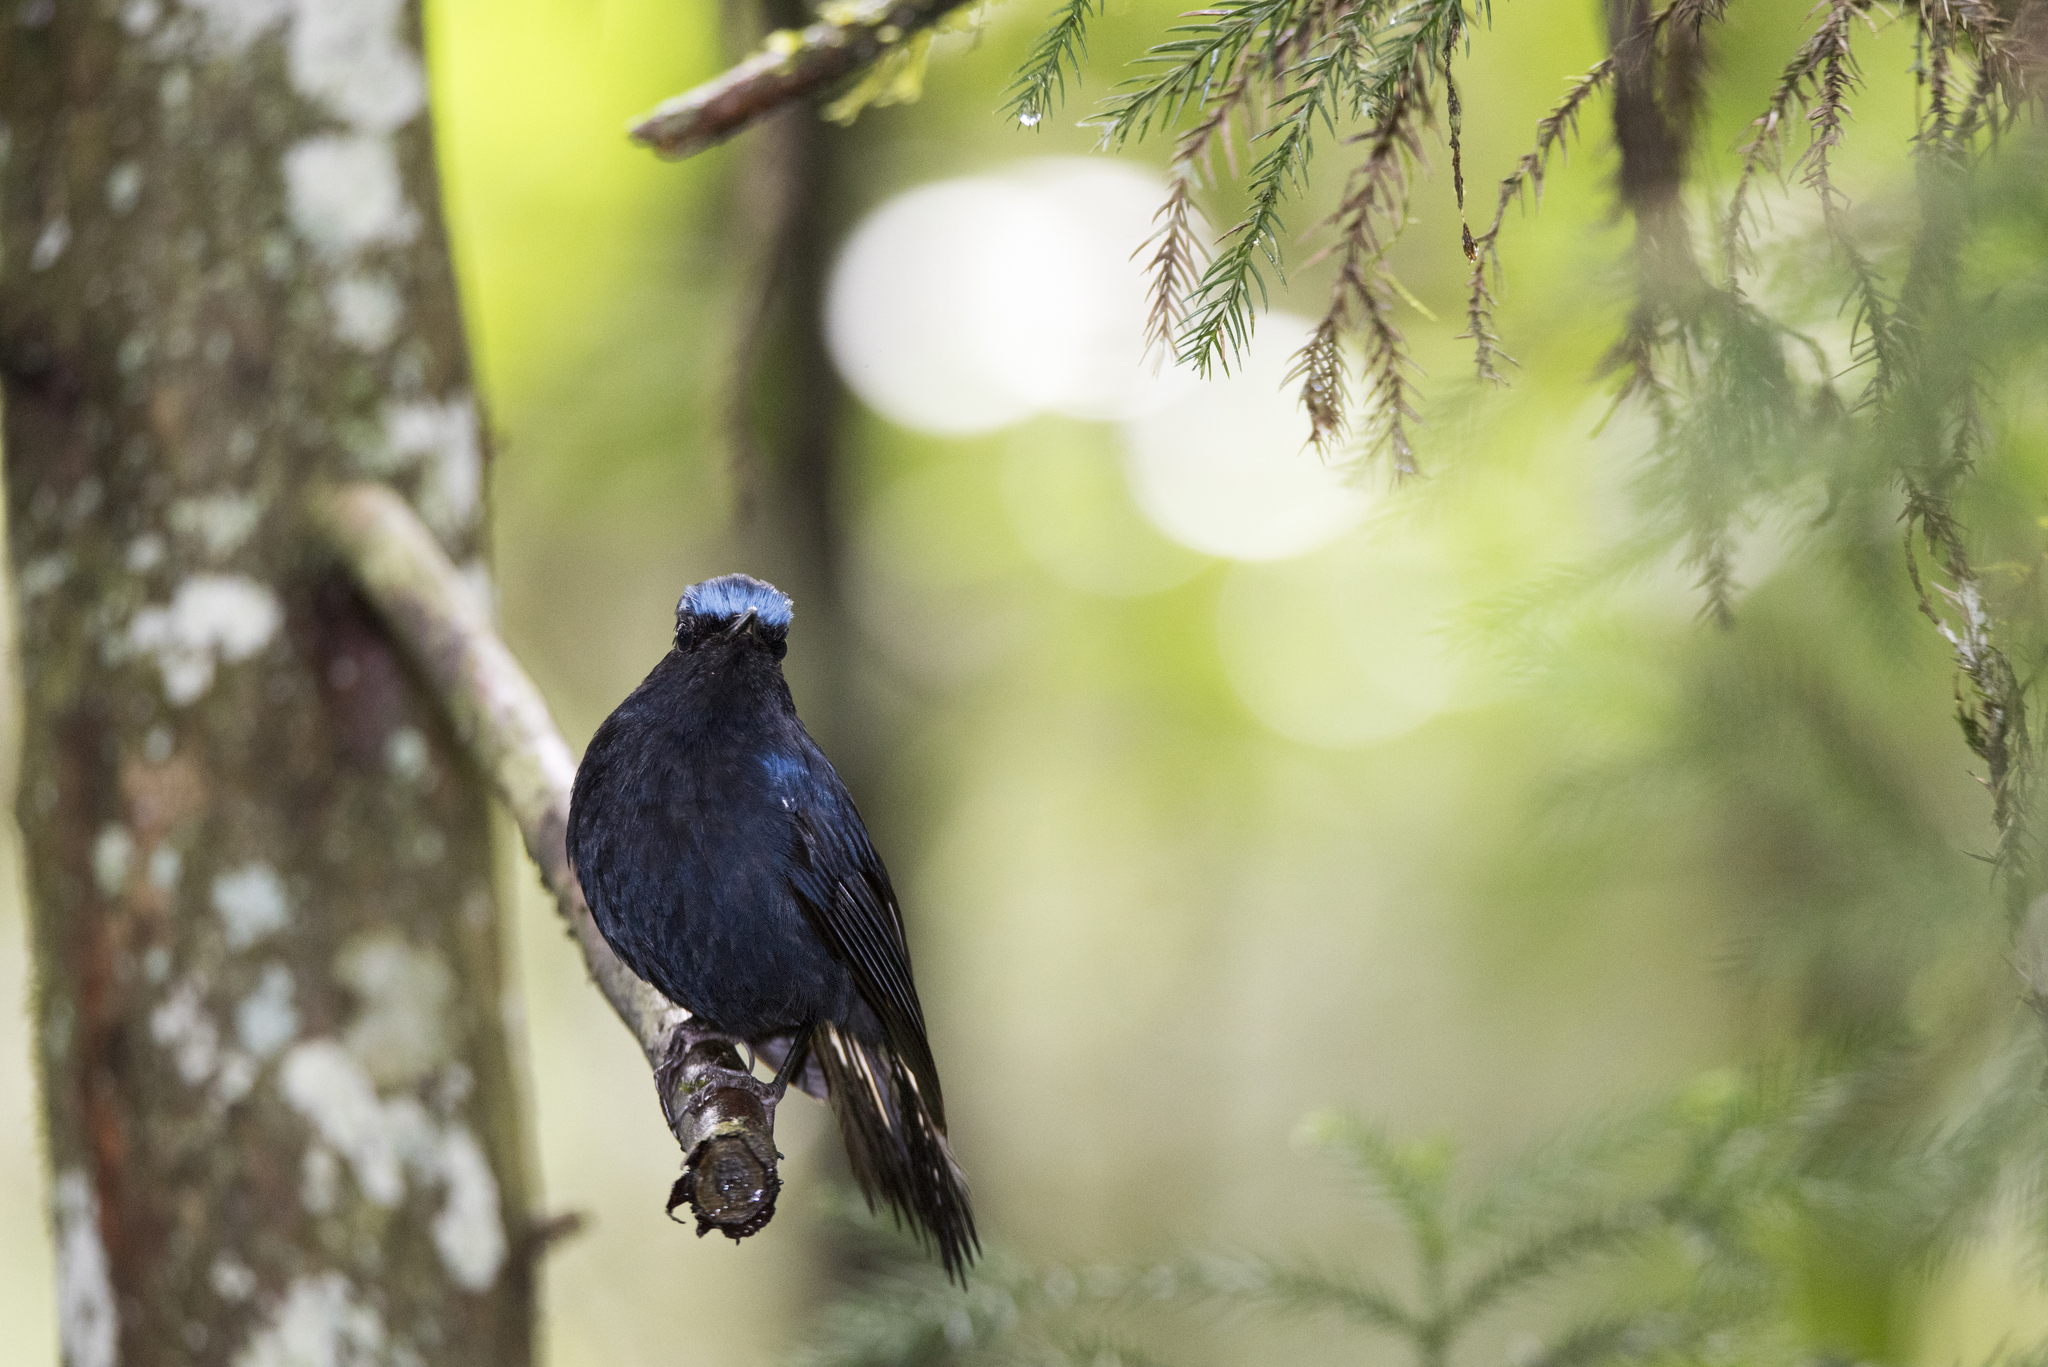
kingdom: Animalia
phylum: Chordata
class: Aves
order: Passeriformes
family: Muscicapidae
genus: Myiomela
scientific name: Myiomela leucura
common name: White-tailed robin
